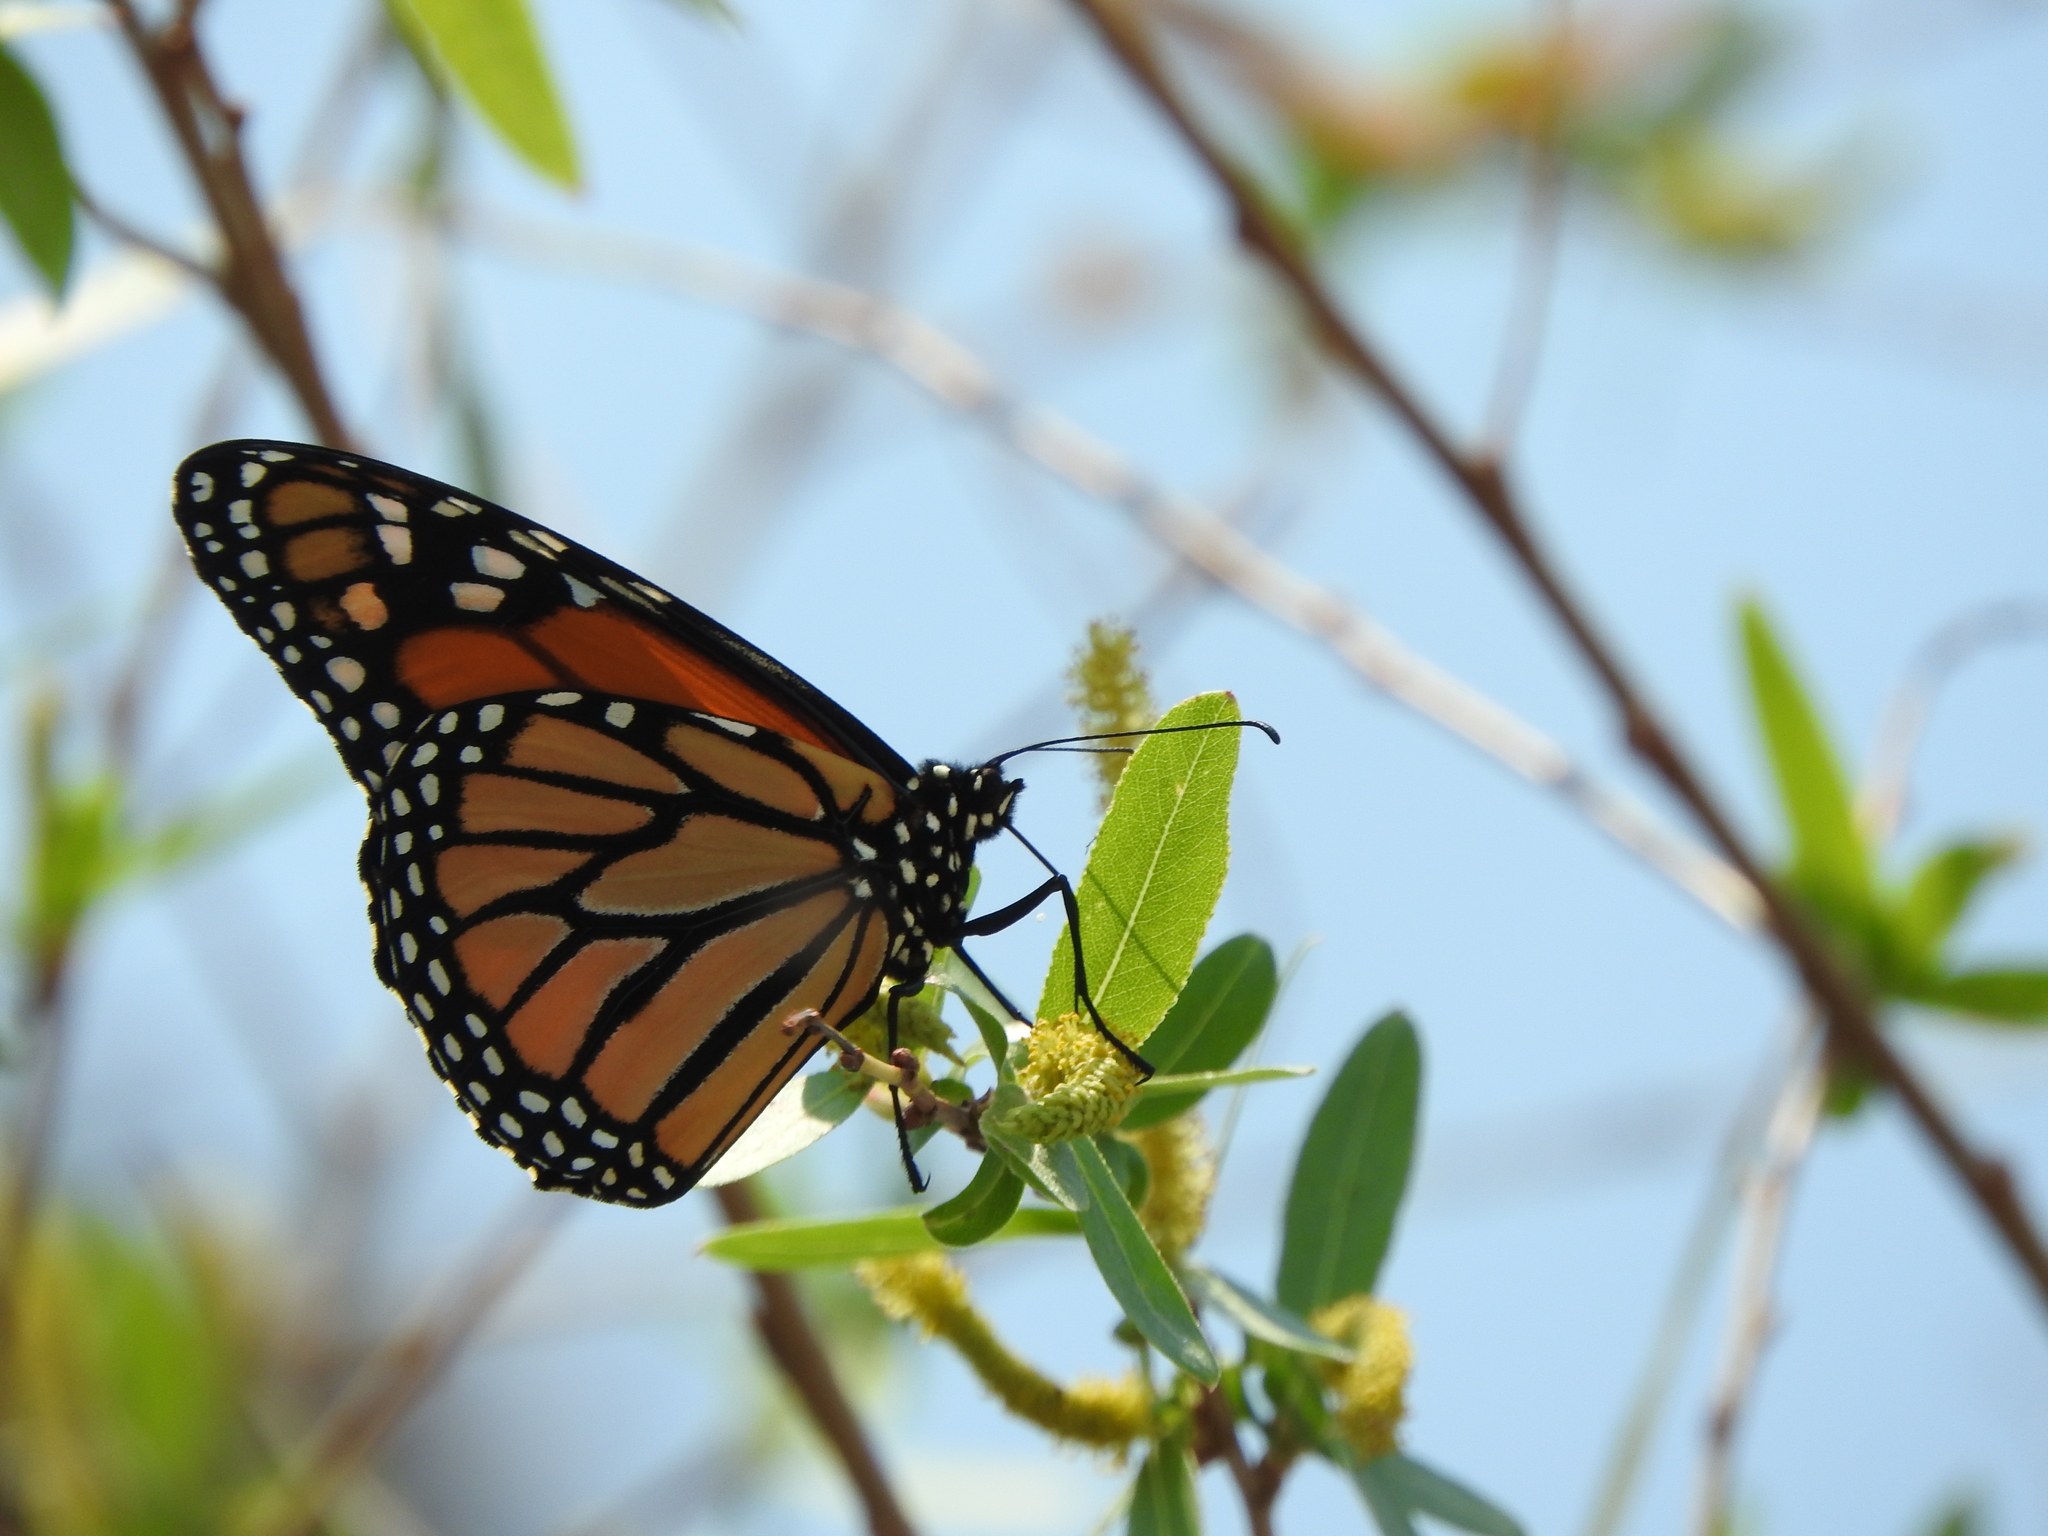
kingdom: Animalia
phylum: Arthropoda
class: Insecta
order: Lepidoptera
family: Nymphalidae
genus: Danaus
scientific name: Danaus plexippus
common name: Monarch
